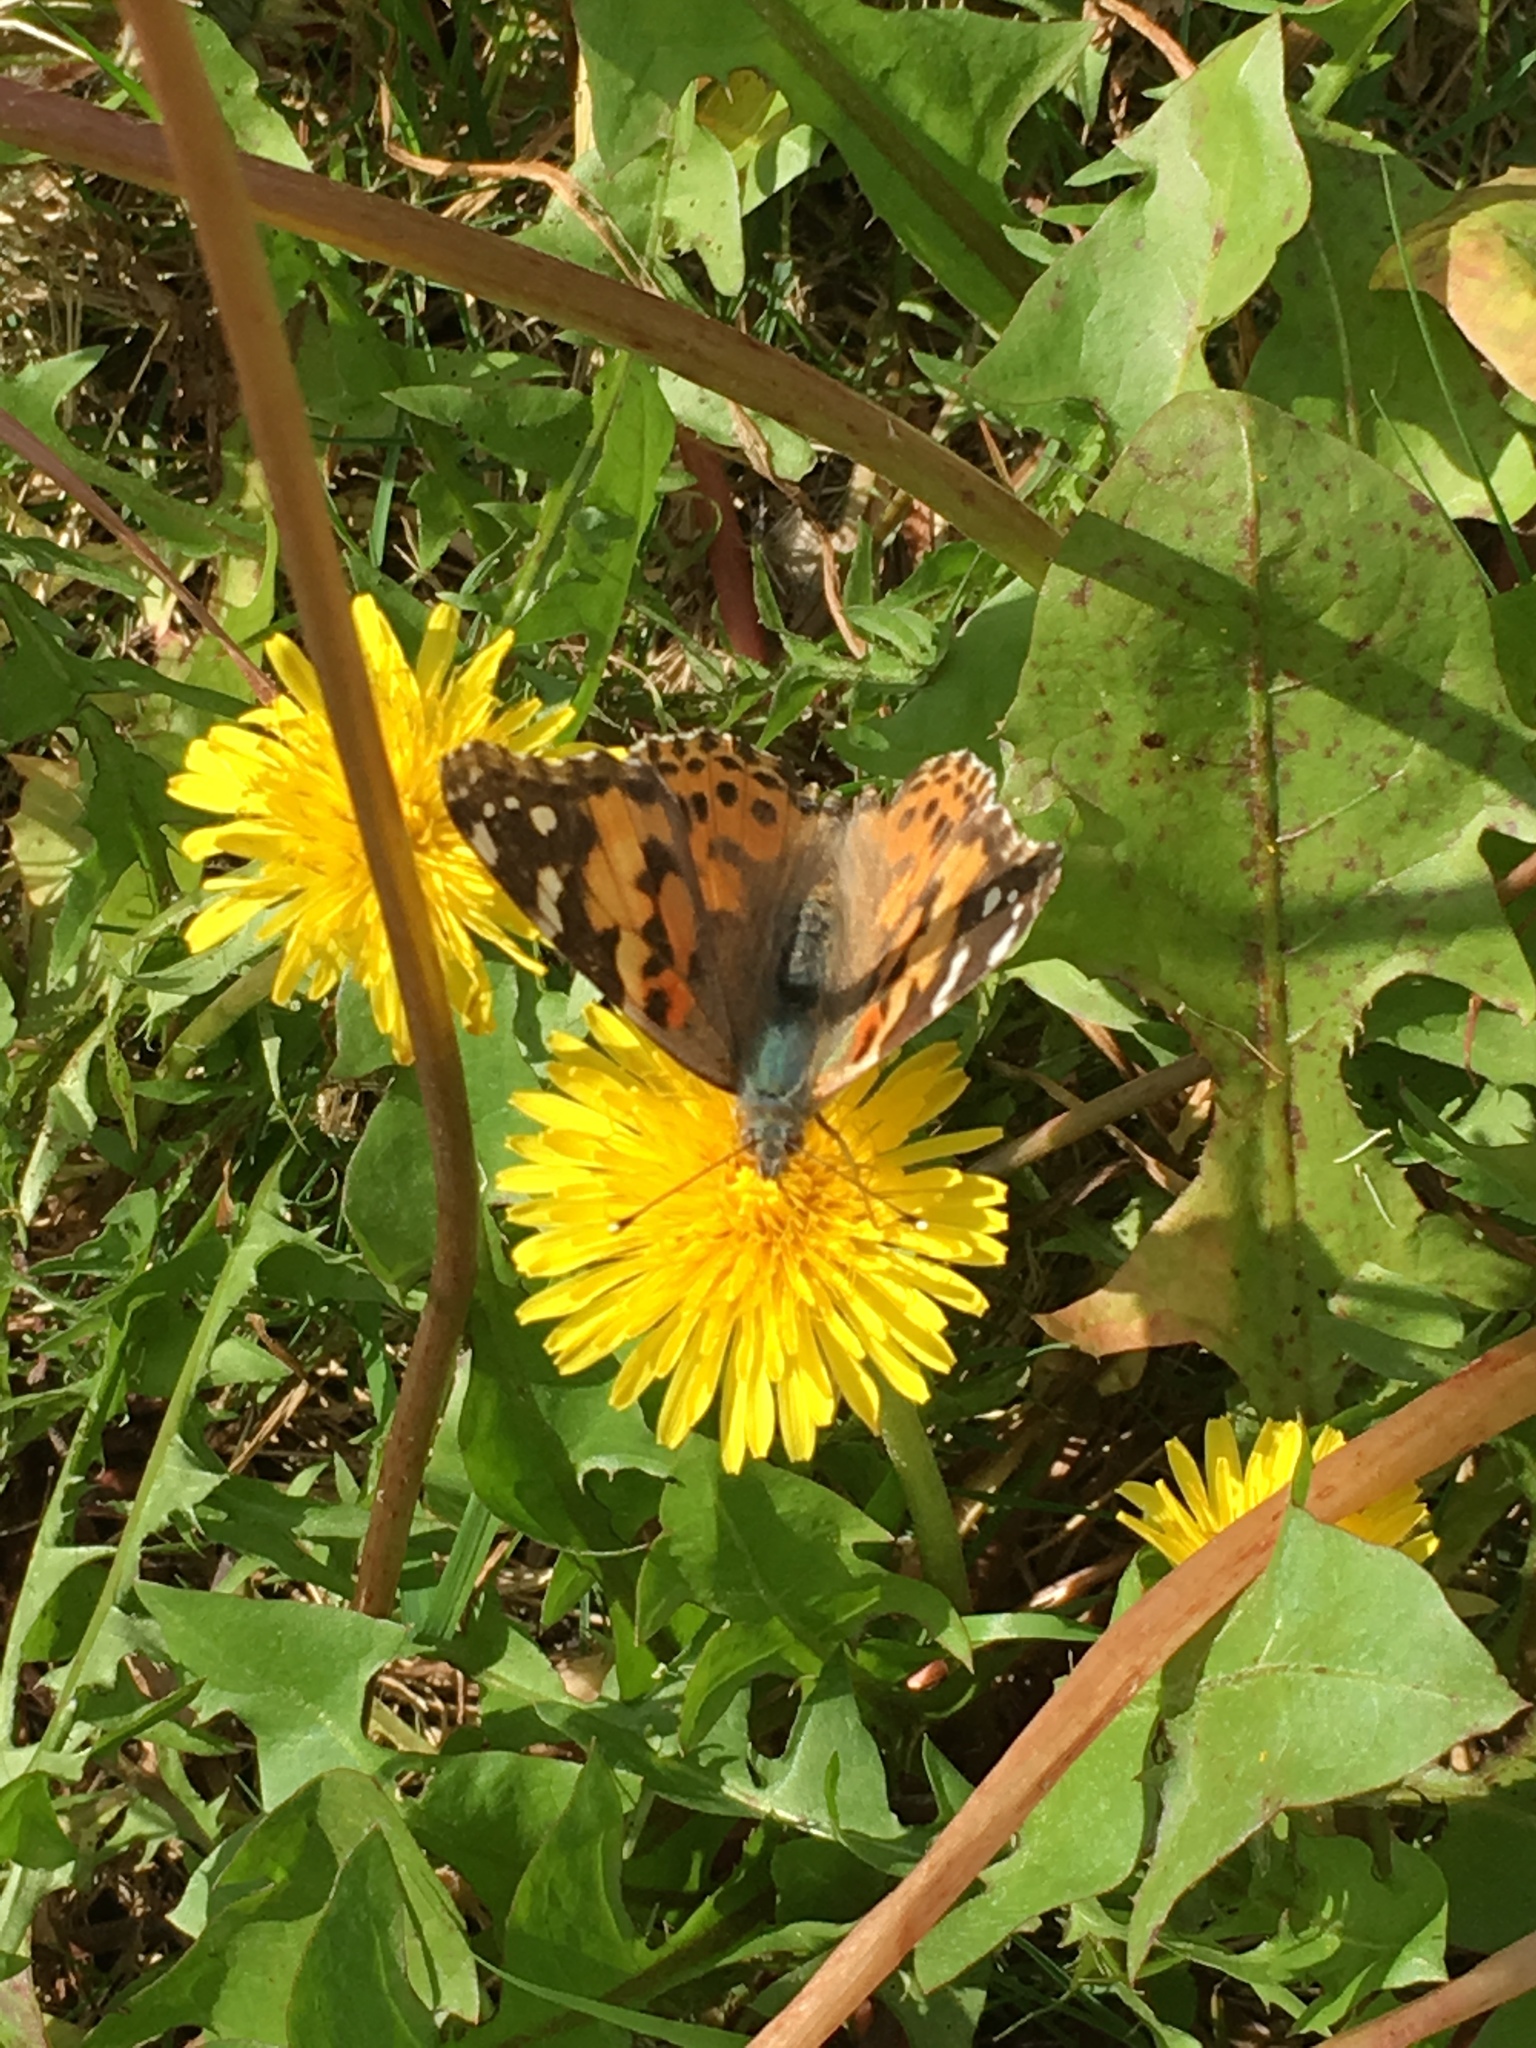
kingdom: Animalia
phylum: Arthropoda
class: Insecta
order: Lepidoptera
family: Nymphalidae
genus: Vanessa
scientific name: Vanessa cardui
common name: Painted lady
